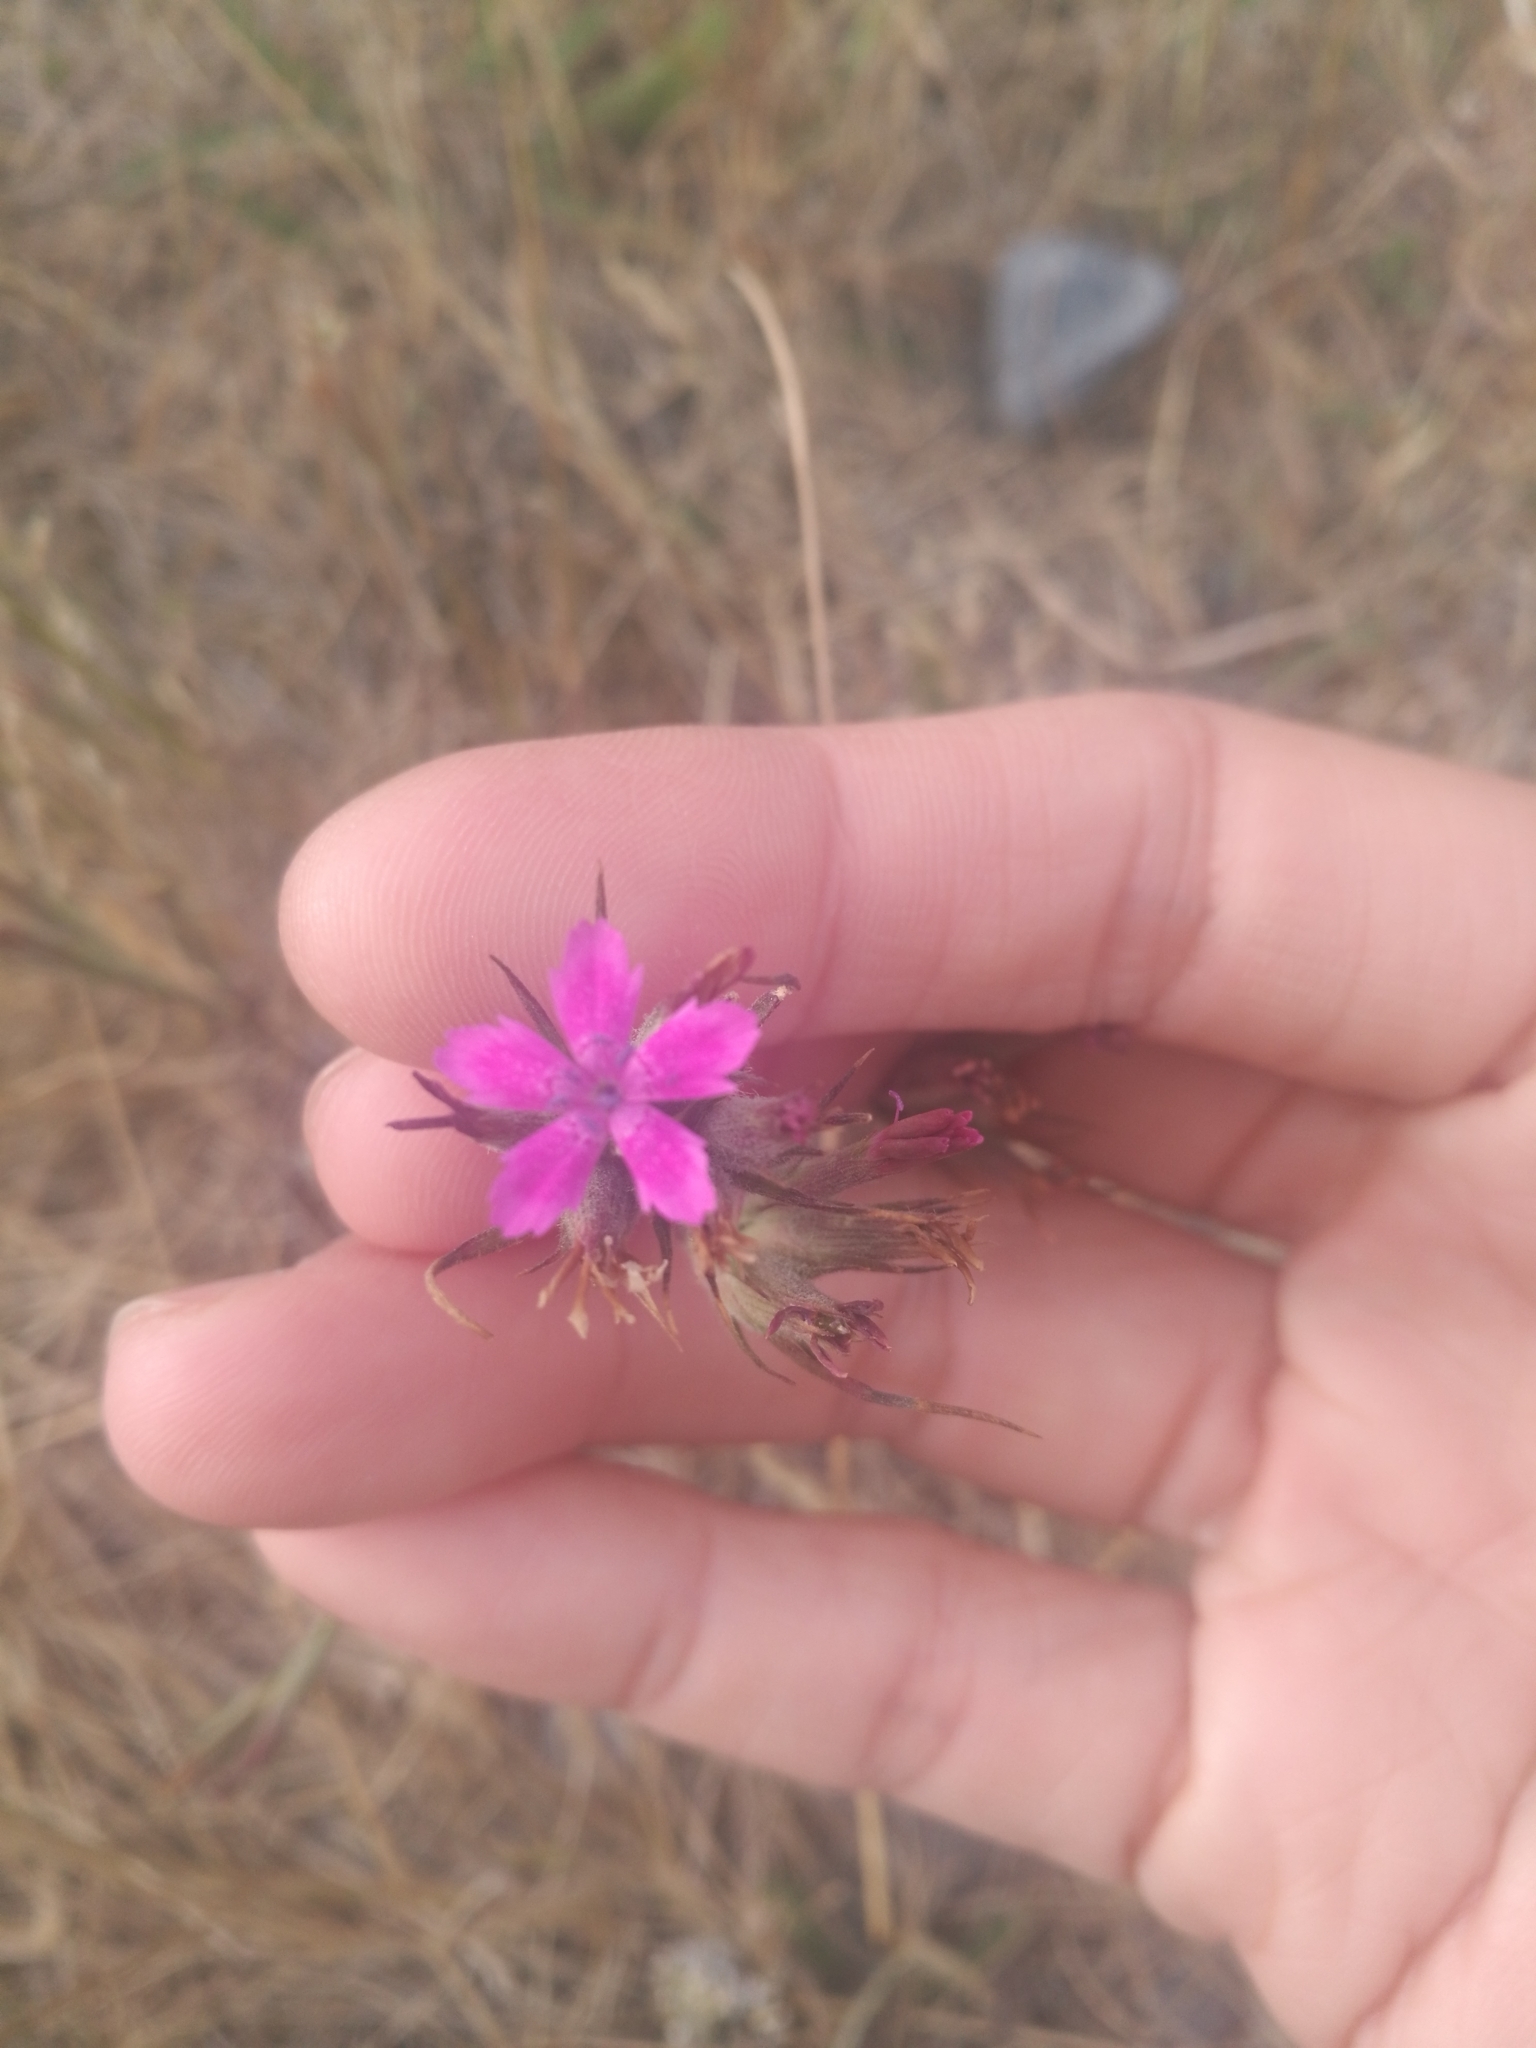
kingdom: Plantae
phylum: Tracheophyta
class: Magnoliopsida
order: Caryophyllales
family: Caryophyllaceae
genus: Dianthus
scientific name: Dianthus armeria
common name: Deptford pink
